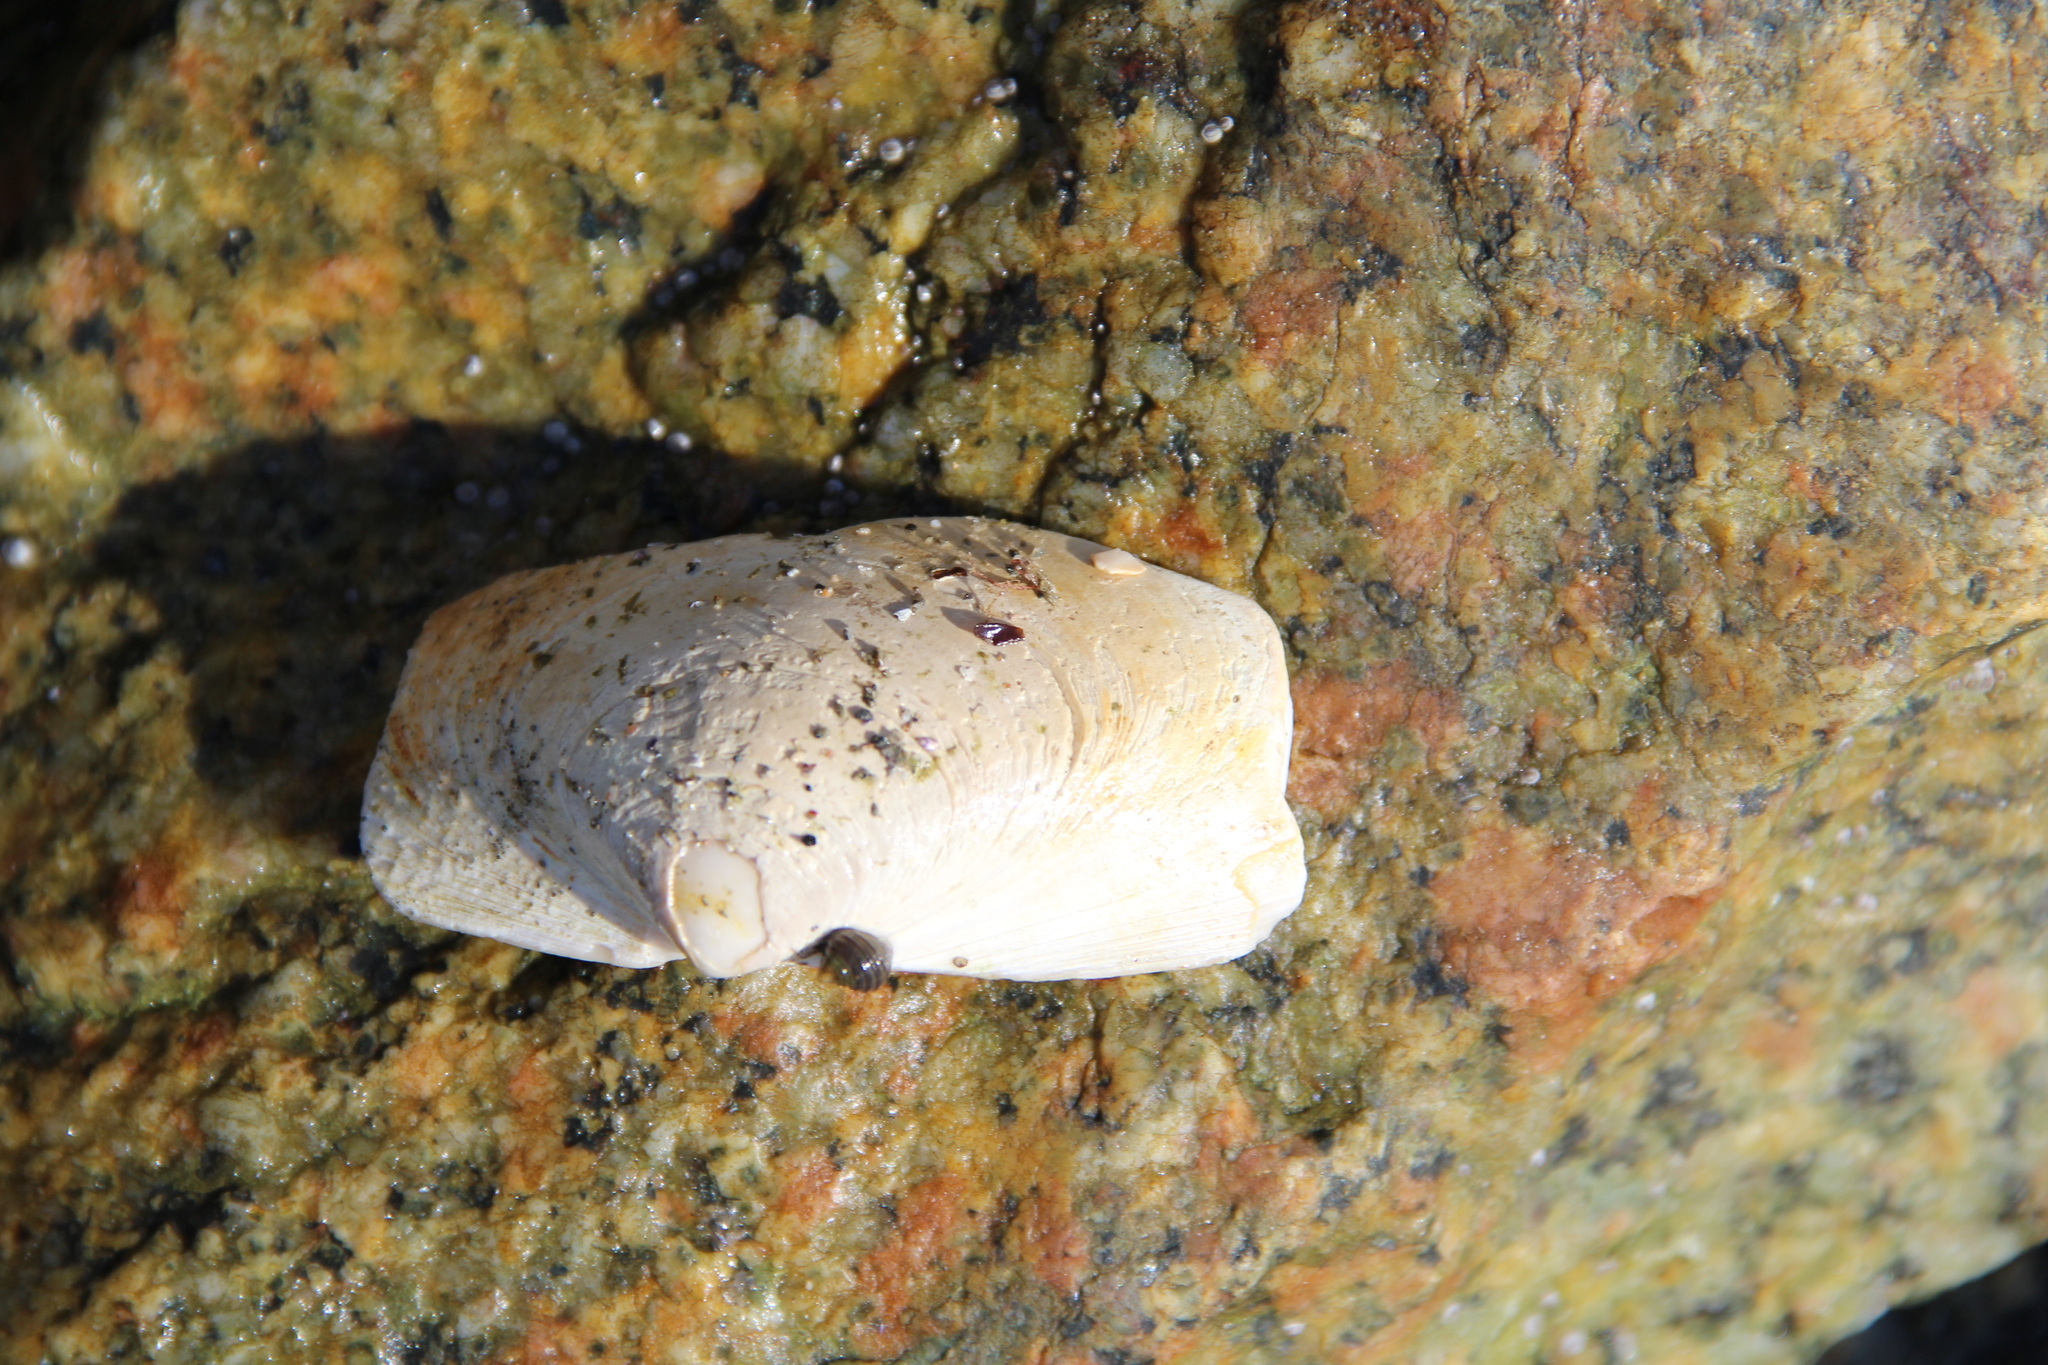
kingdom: Animalia
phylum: Mollusca
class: Bivalvia
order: Venerida
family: Mactridae
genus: Spisula
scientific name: Spisula solidissima
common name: Atlantic surf clam
